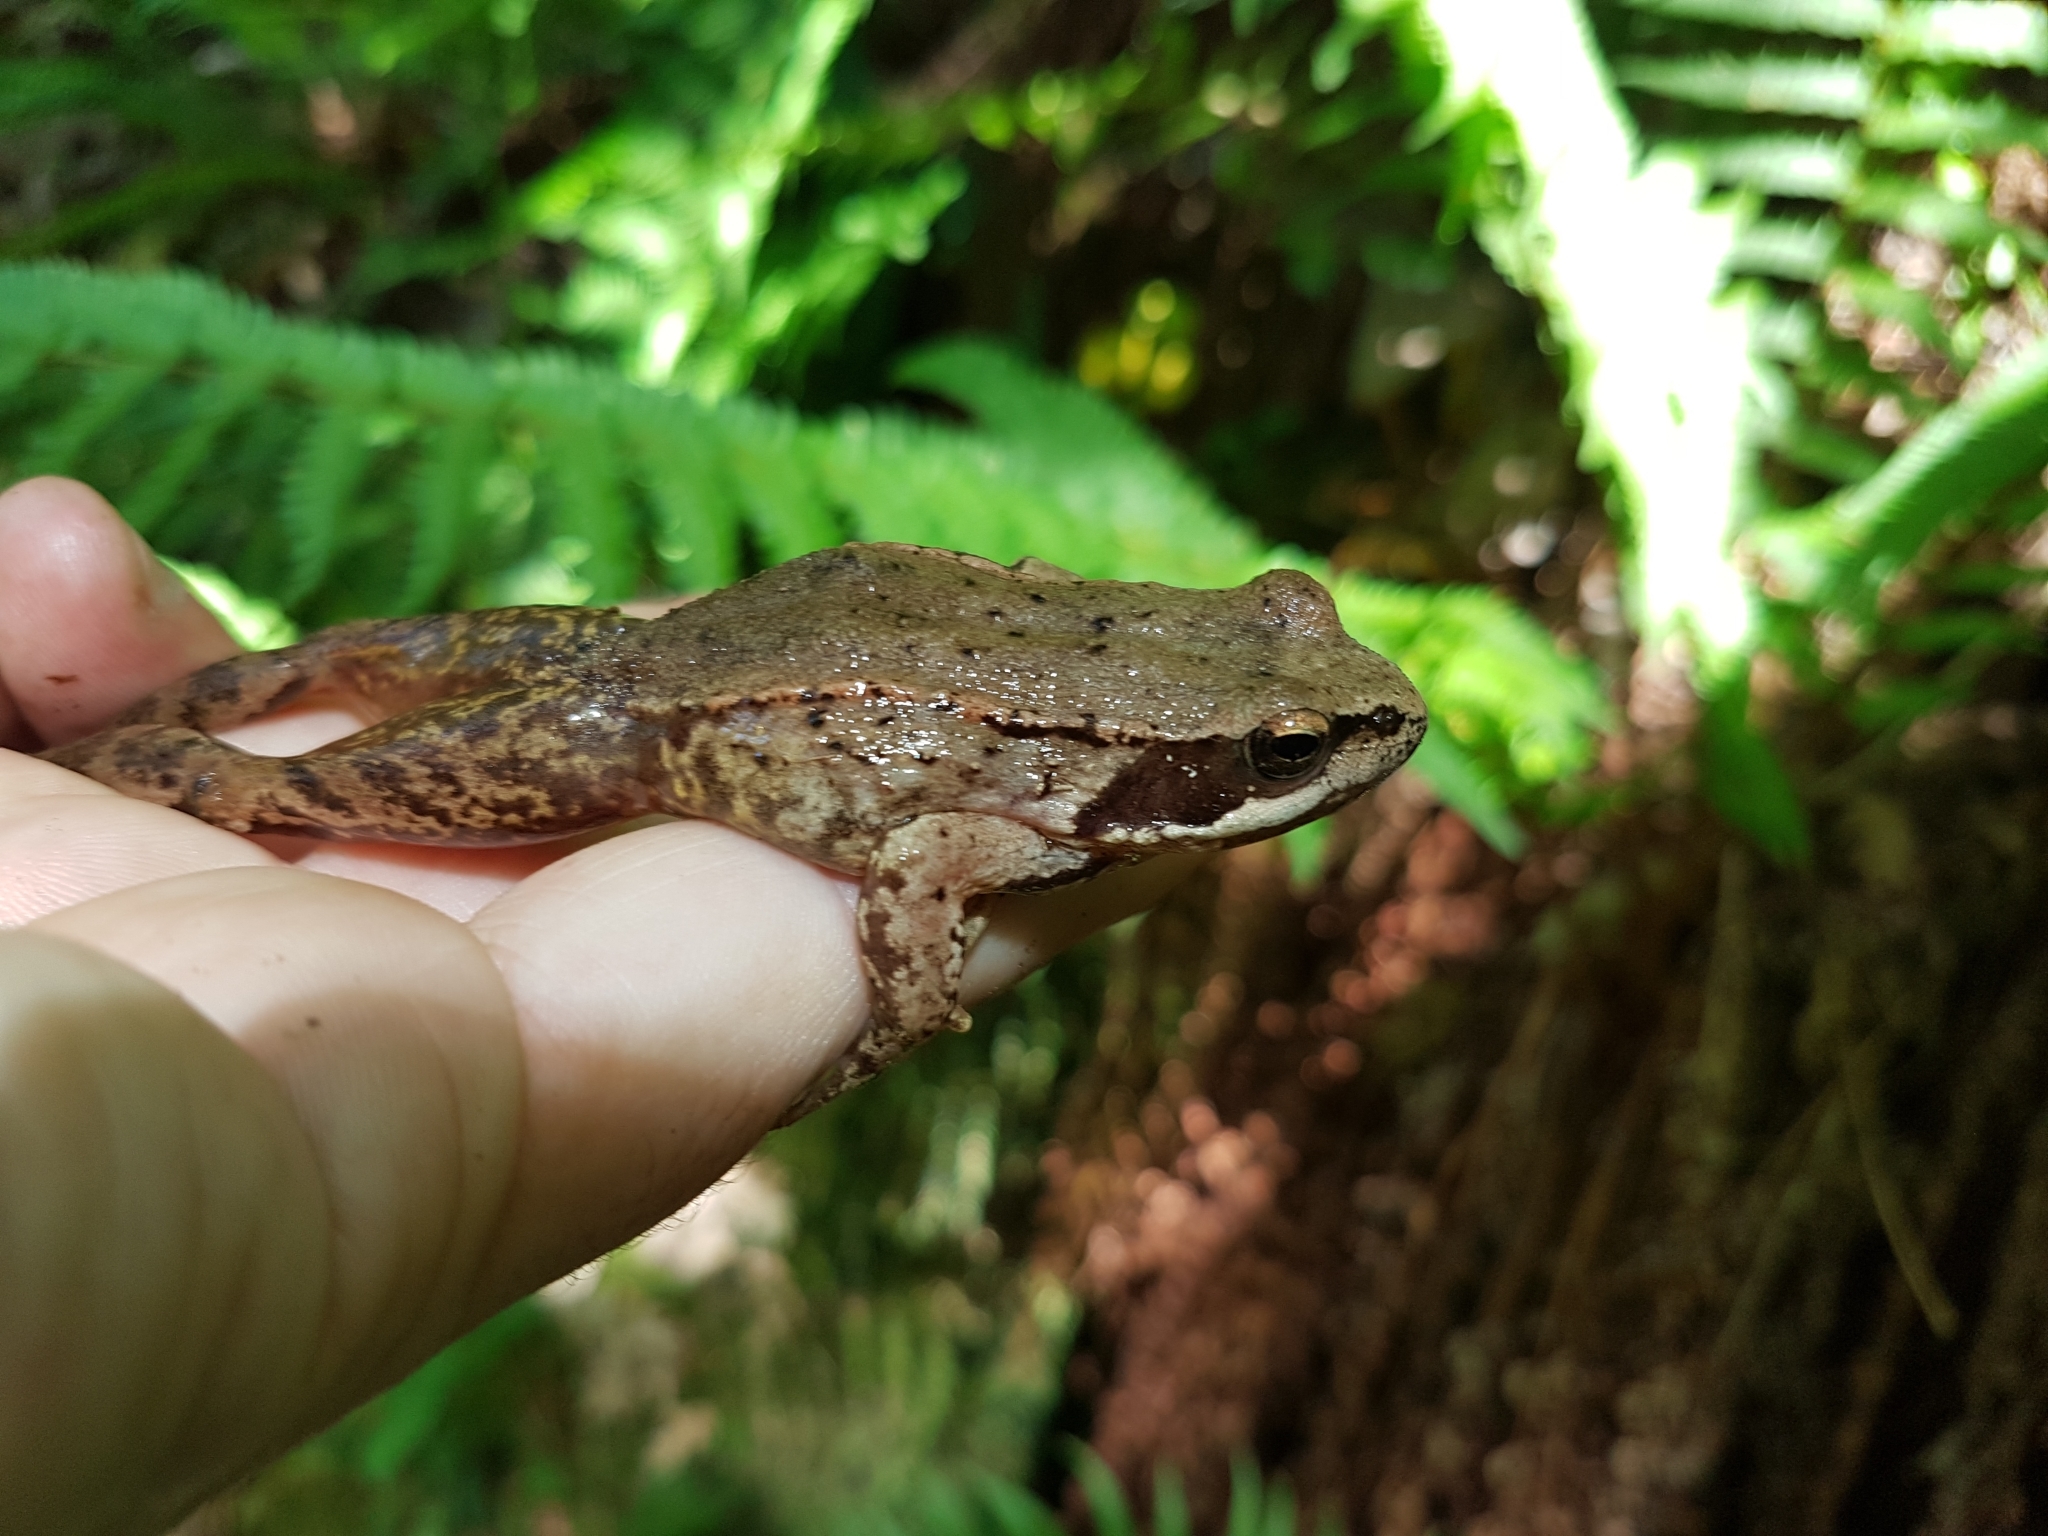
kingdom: Animalia
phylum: Chordata
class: Amphibia
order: Anura
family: Ranidae
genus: Rana
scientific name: Rana iberica
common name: Iberian frog
